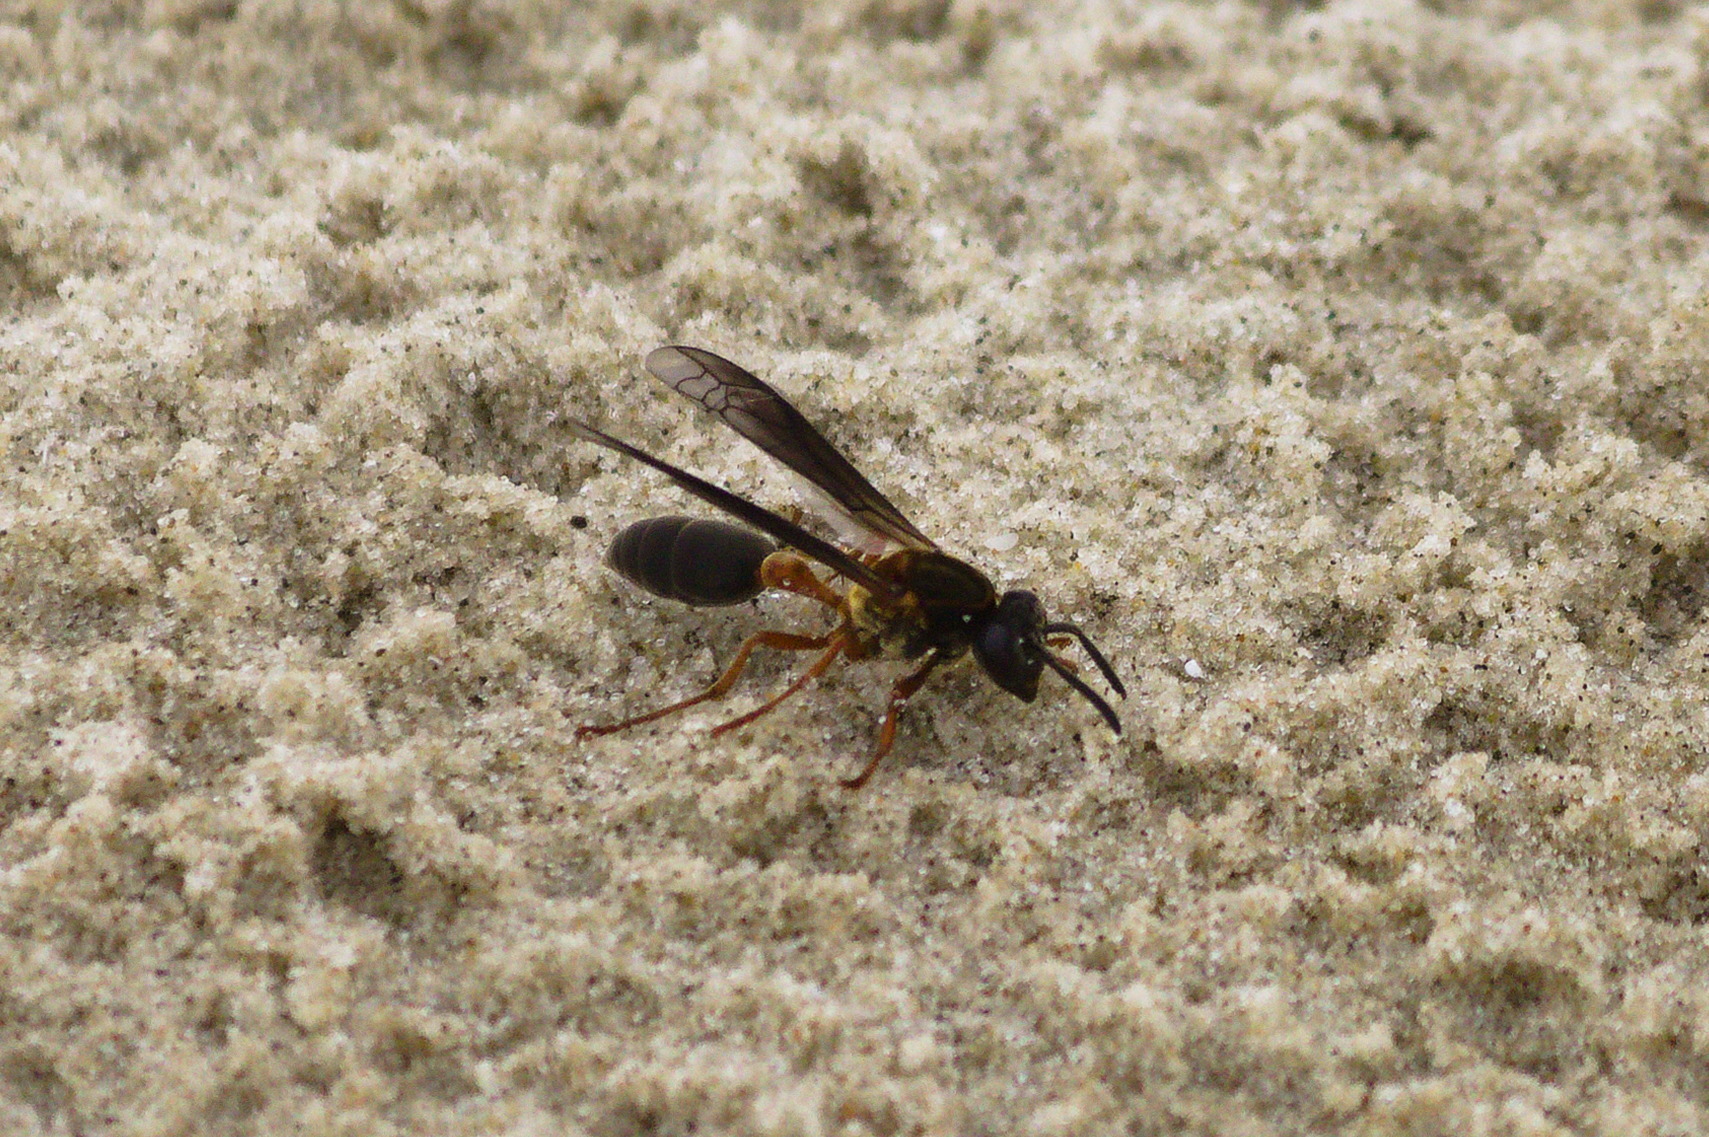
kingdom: Animalia
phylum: Arthropoda
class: Insecta
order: Hymenoptera
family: Eumenidae
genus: Polybia
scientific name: Polybia sericea
